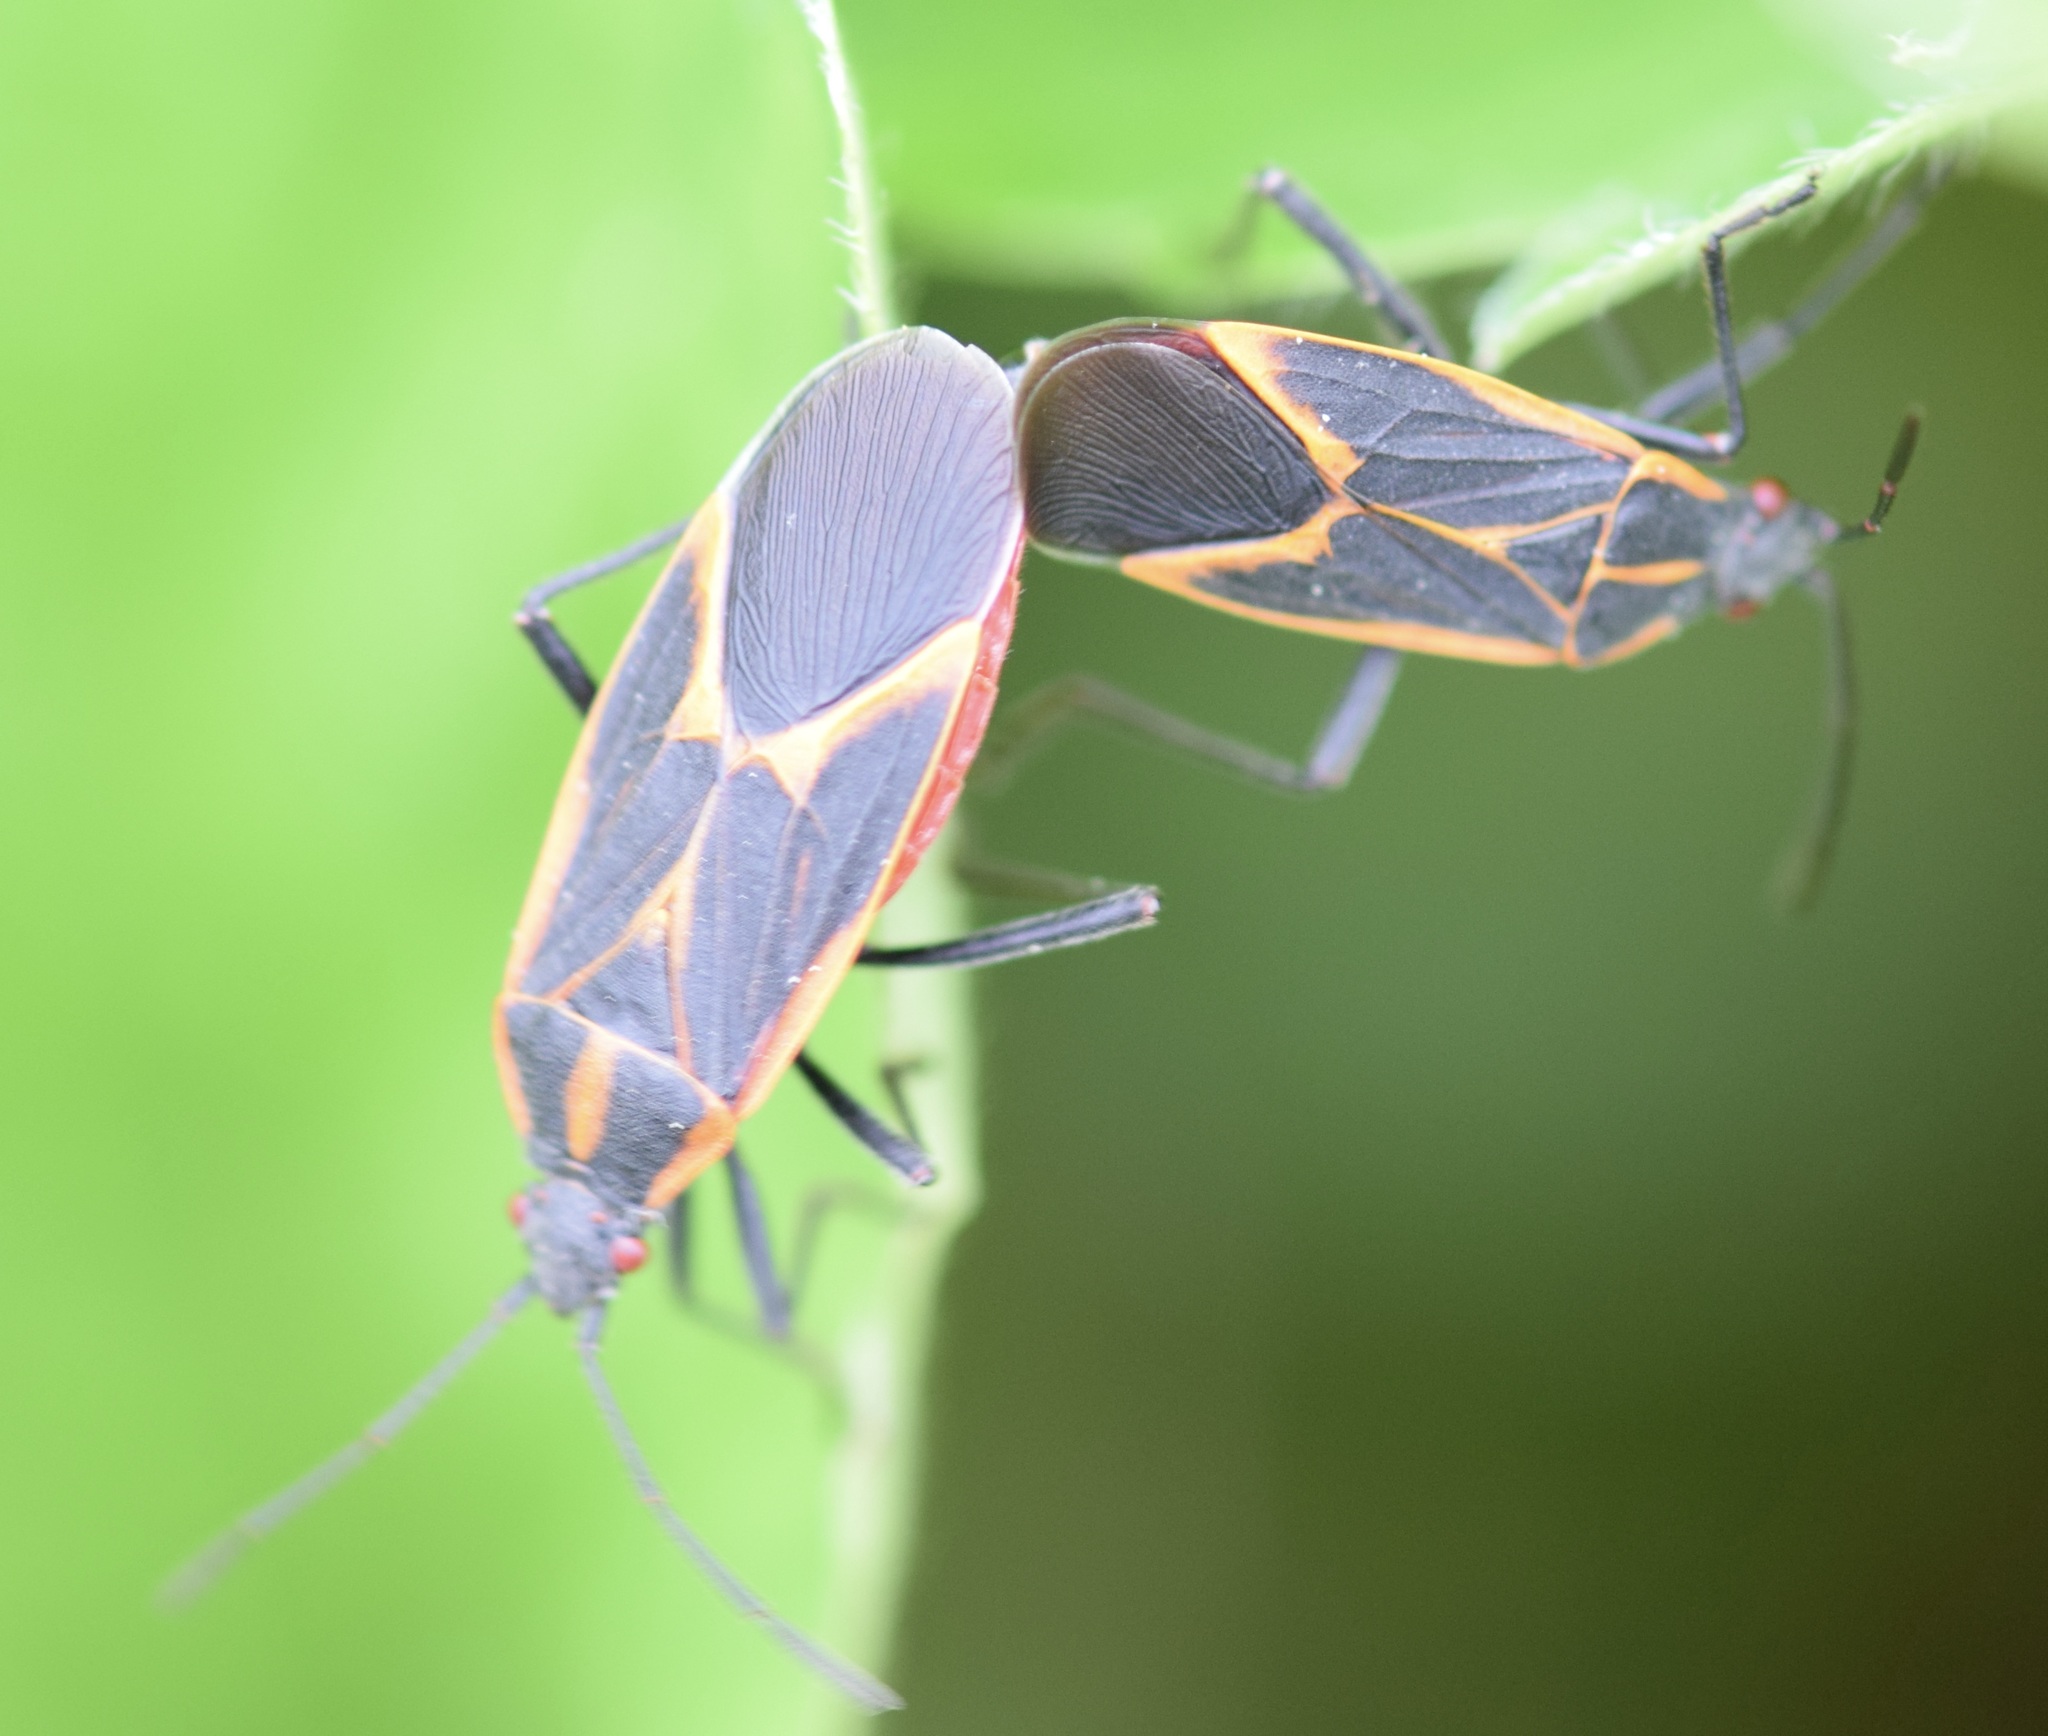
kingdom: Animalia
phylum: Arthropoda
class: Insecta
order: Hemiptera
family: Rhopalidae
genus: Boisea
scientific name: Boisea trivittata
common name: Boxelder bug
